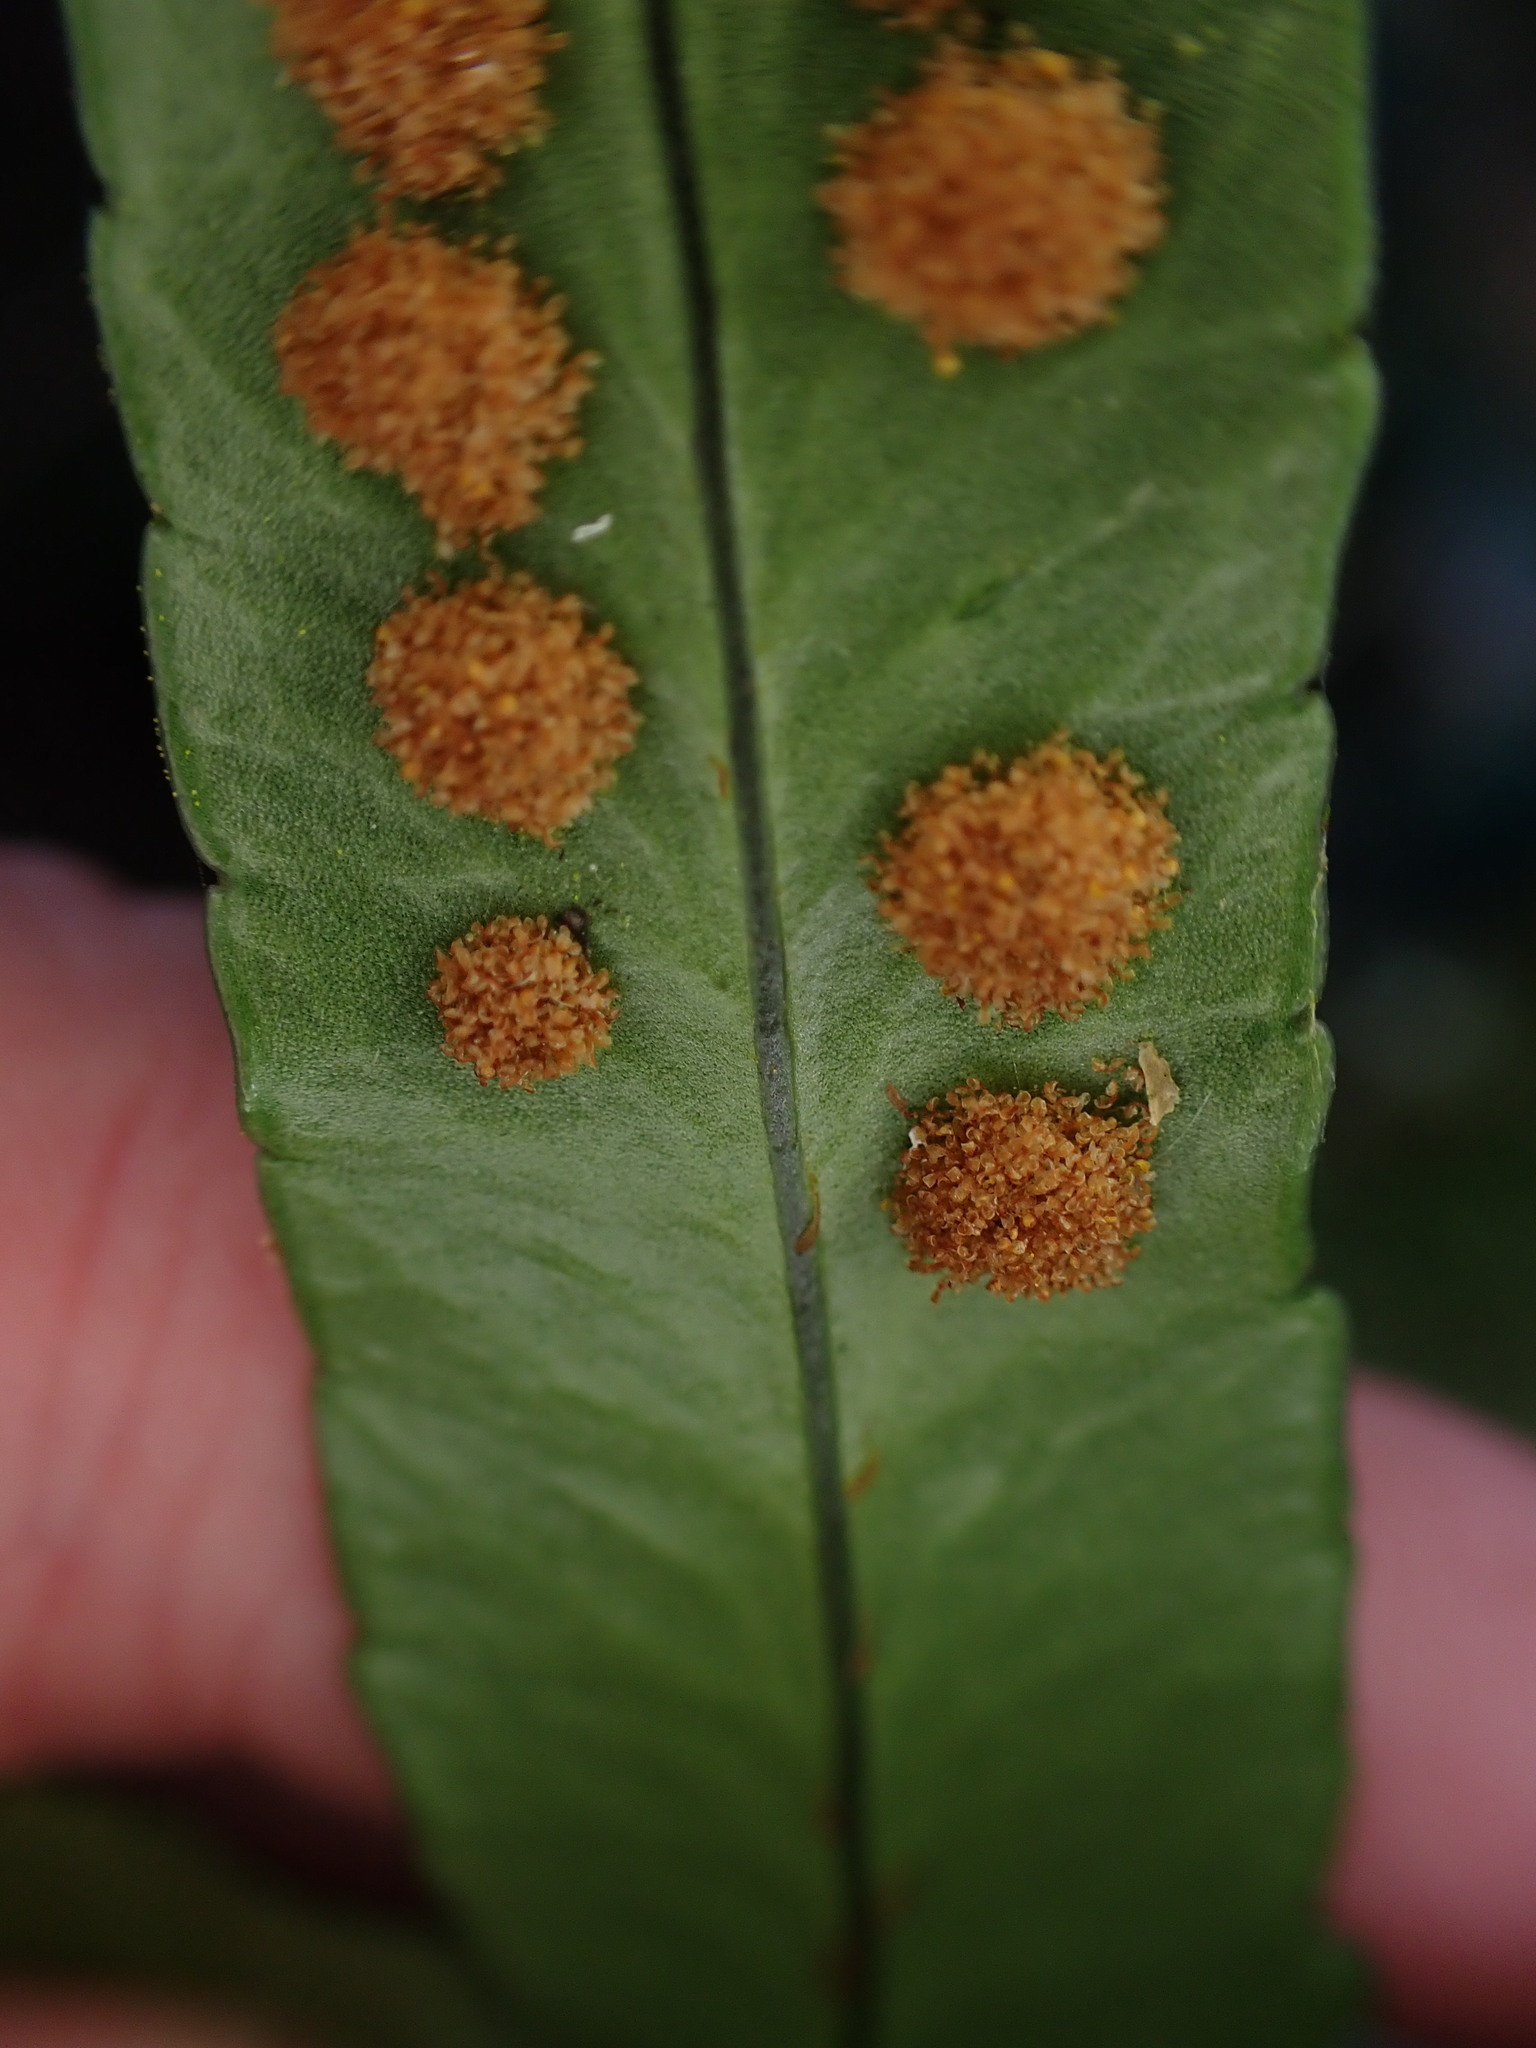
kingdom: Plantae
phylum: Tracheophyta
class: Polypodiopsida
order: Polypodiales
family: Polypodiaceae
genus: Polypodium
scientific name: Polypodium scouleri
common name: Scouler's polypody
